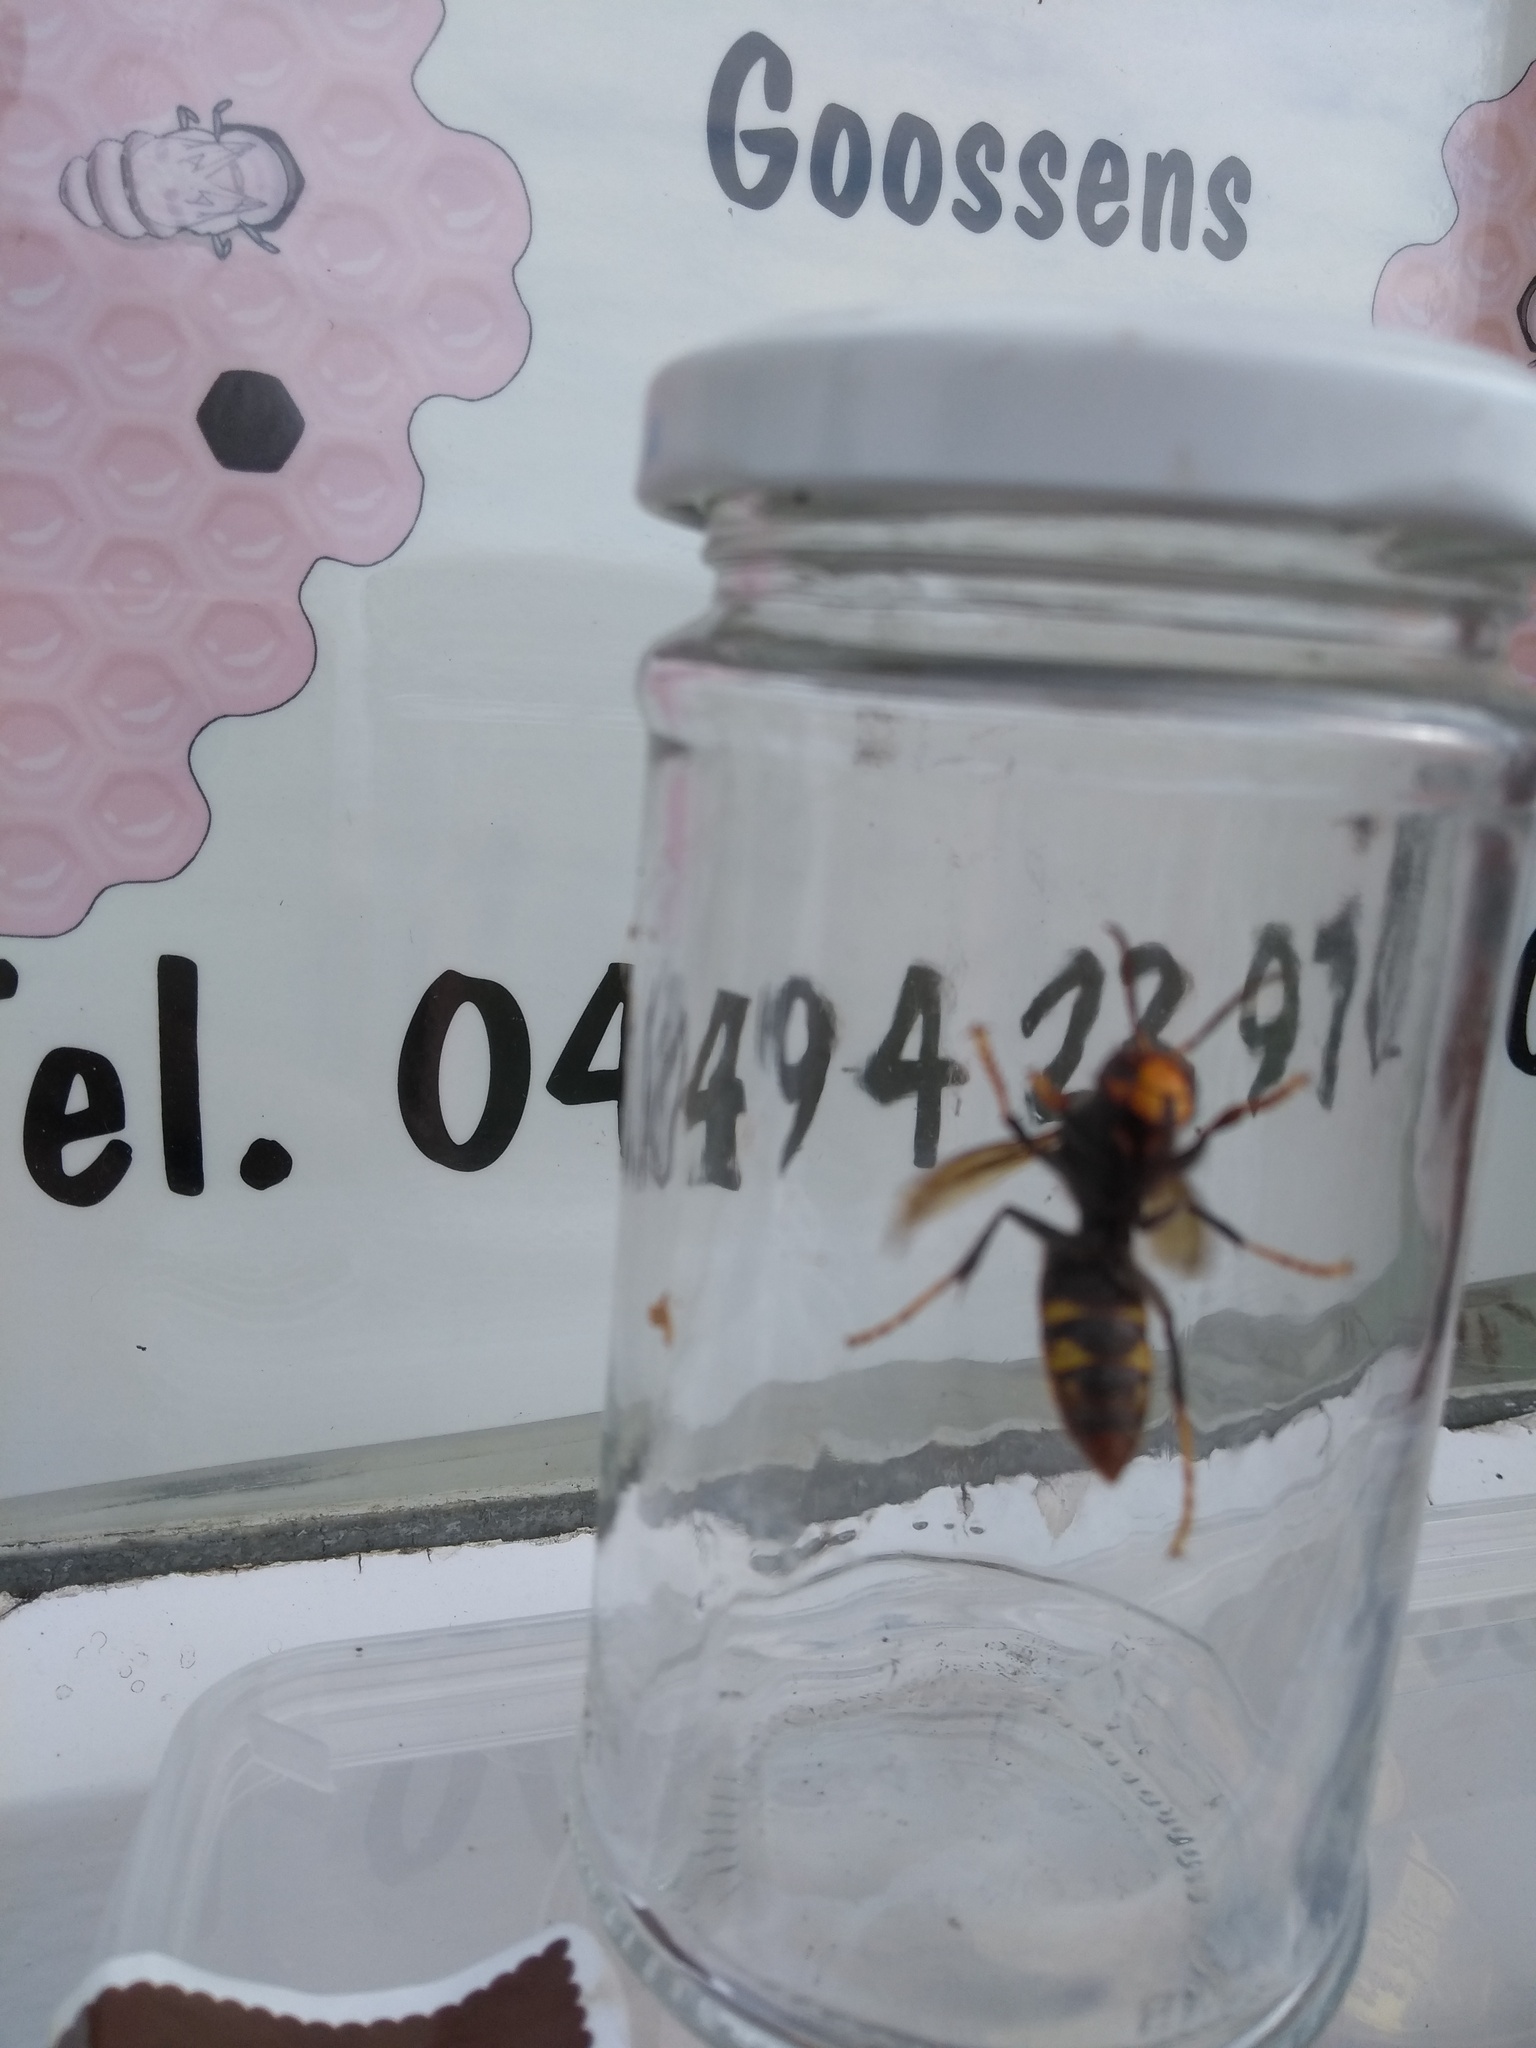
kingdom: Animalia
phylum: Arthropoda
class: Insecta
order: Hymenoptera
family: Vespidae
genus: Vespa
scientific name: Vespa velutina
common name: Asian hornet
